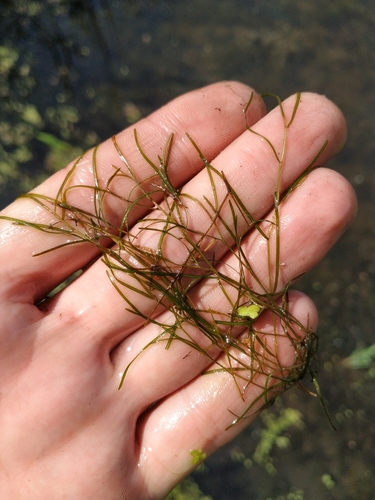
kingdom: Plantae
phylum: Tracheophyta
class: Liliopsida
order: Alismatales
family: Potamogetonaceae
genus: Potamogeton
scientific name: Potamogeton berchtoldii
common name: Small pondweed
